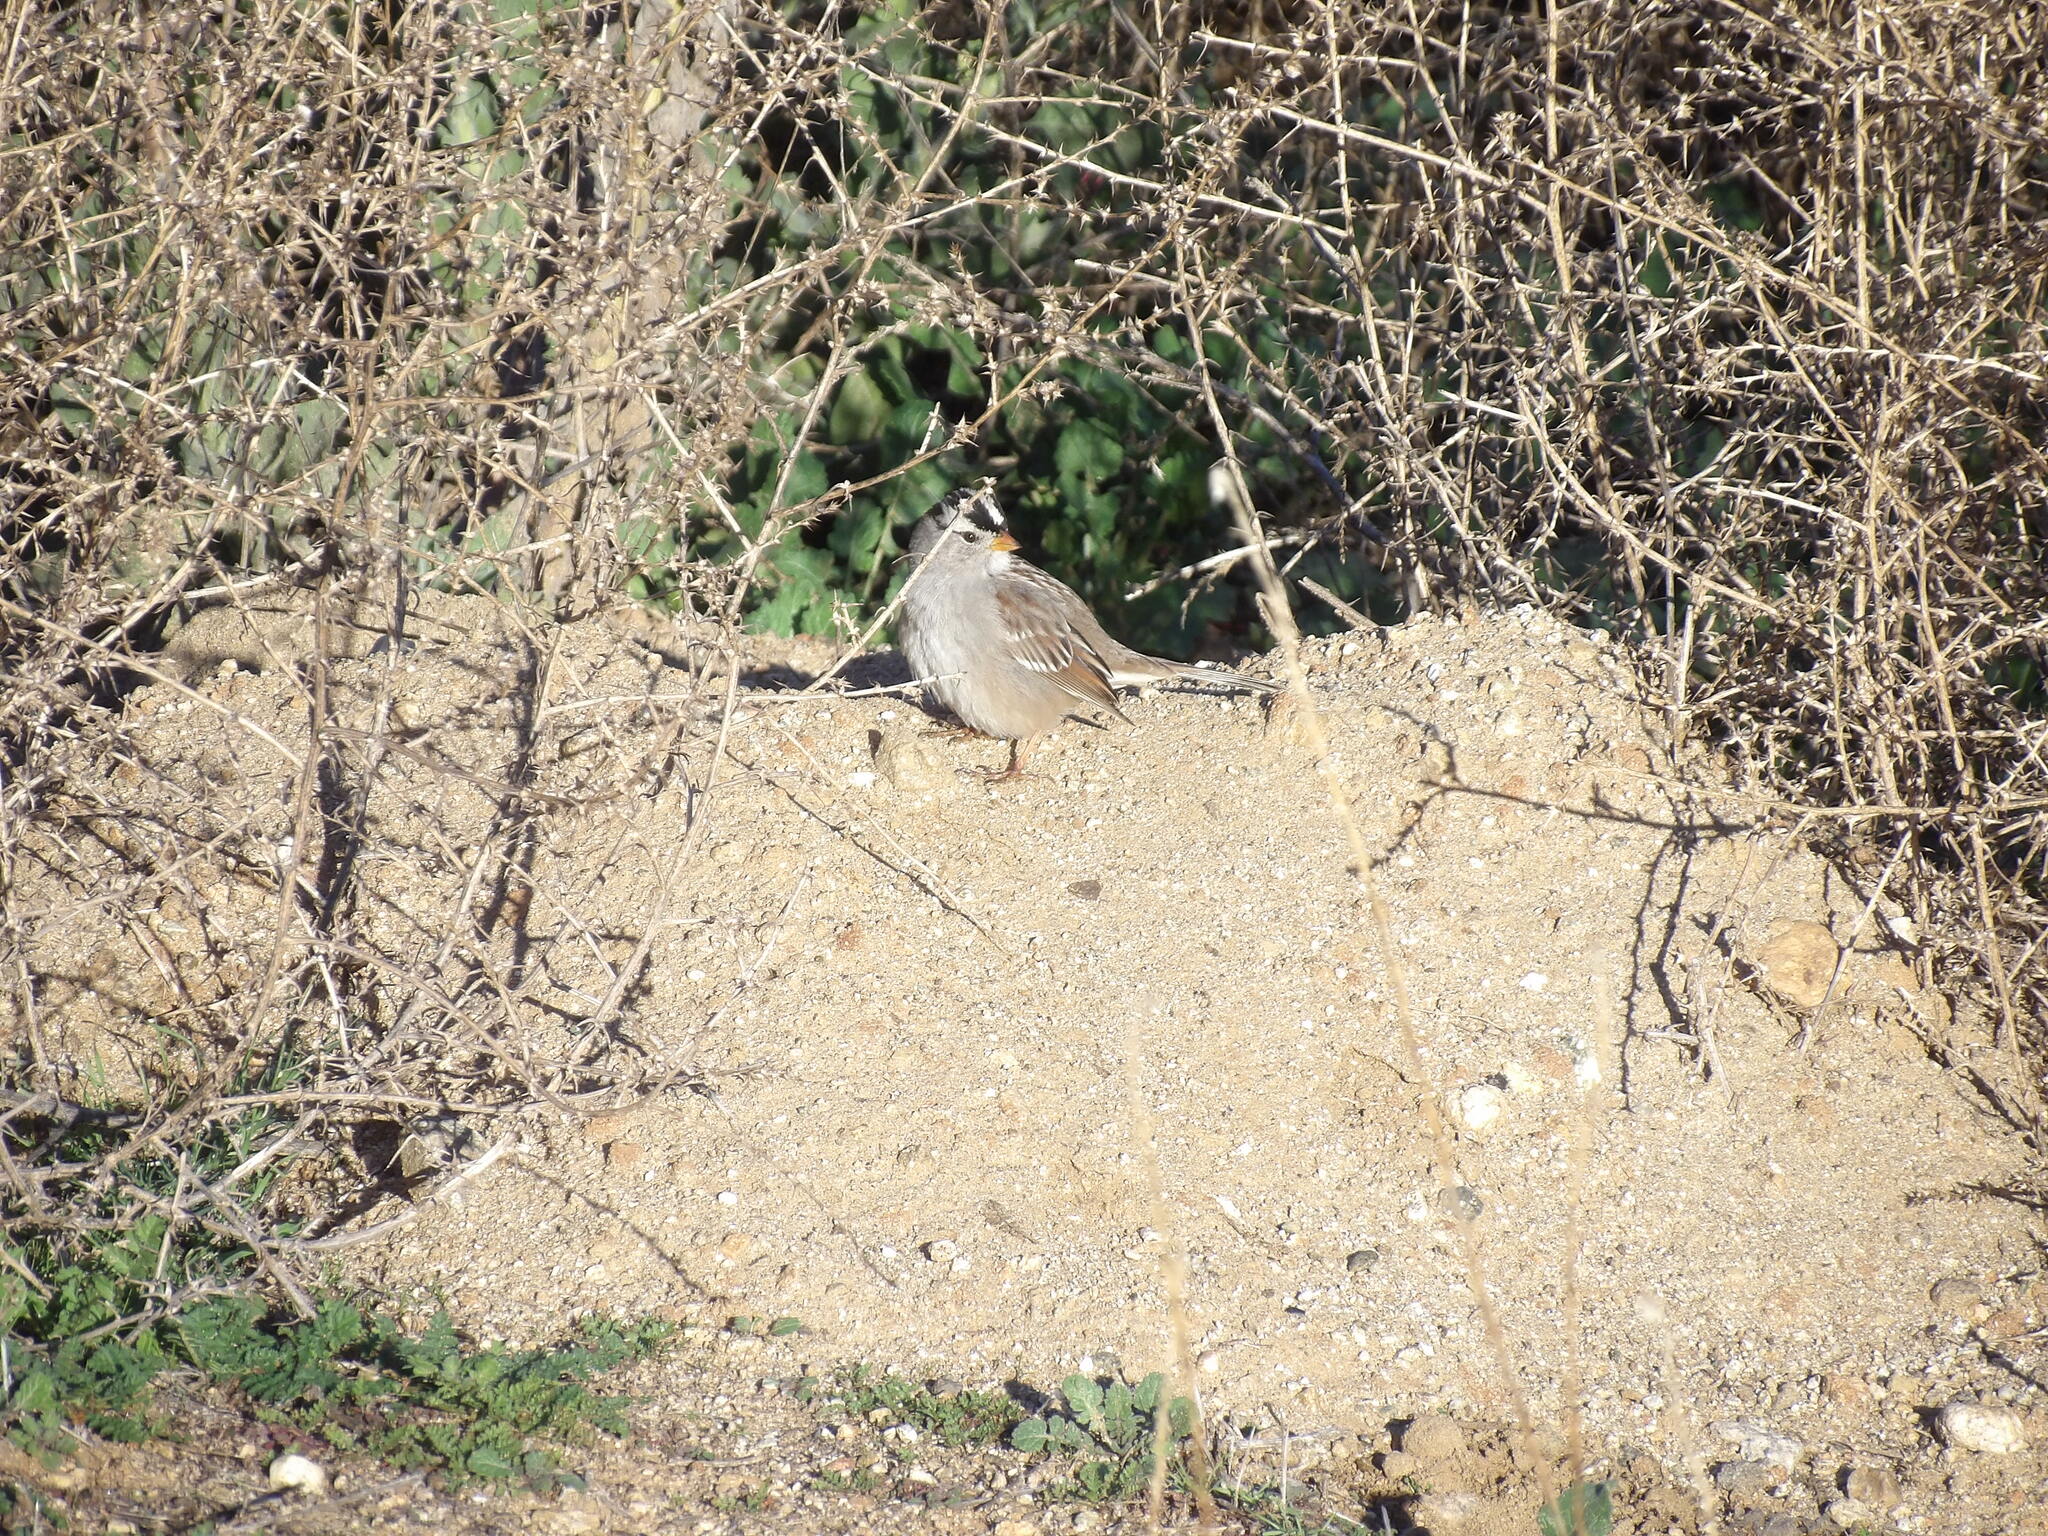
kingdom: Animalia
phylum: Chordata
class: Aves
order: Passeriformes
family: Passerellidae
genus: Zonotrichia
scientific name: Zonotrichia leucophrys
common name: White-crowned sparrow
